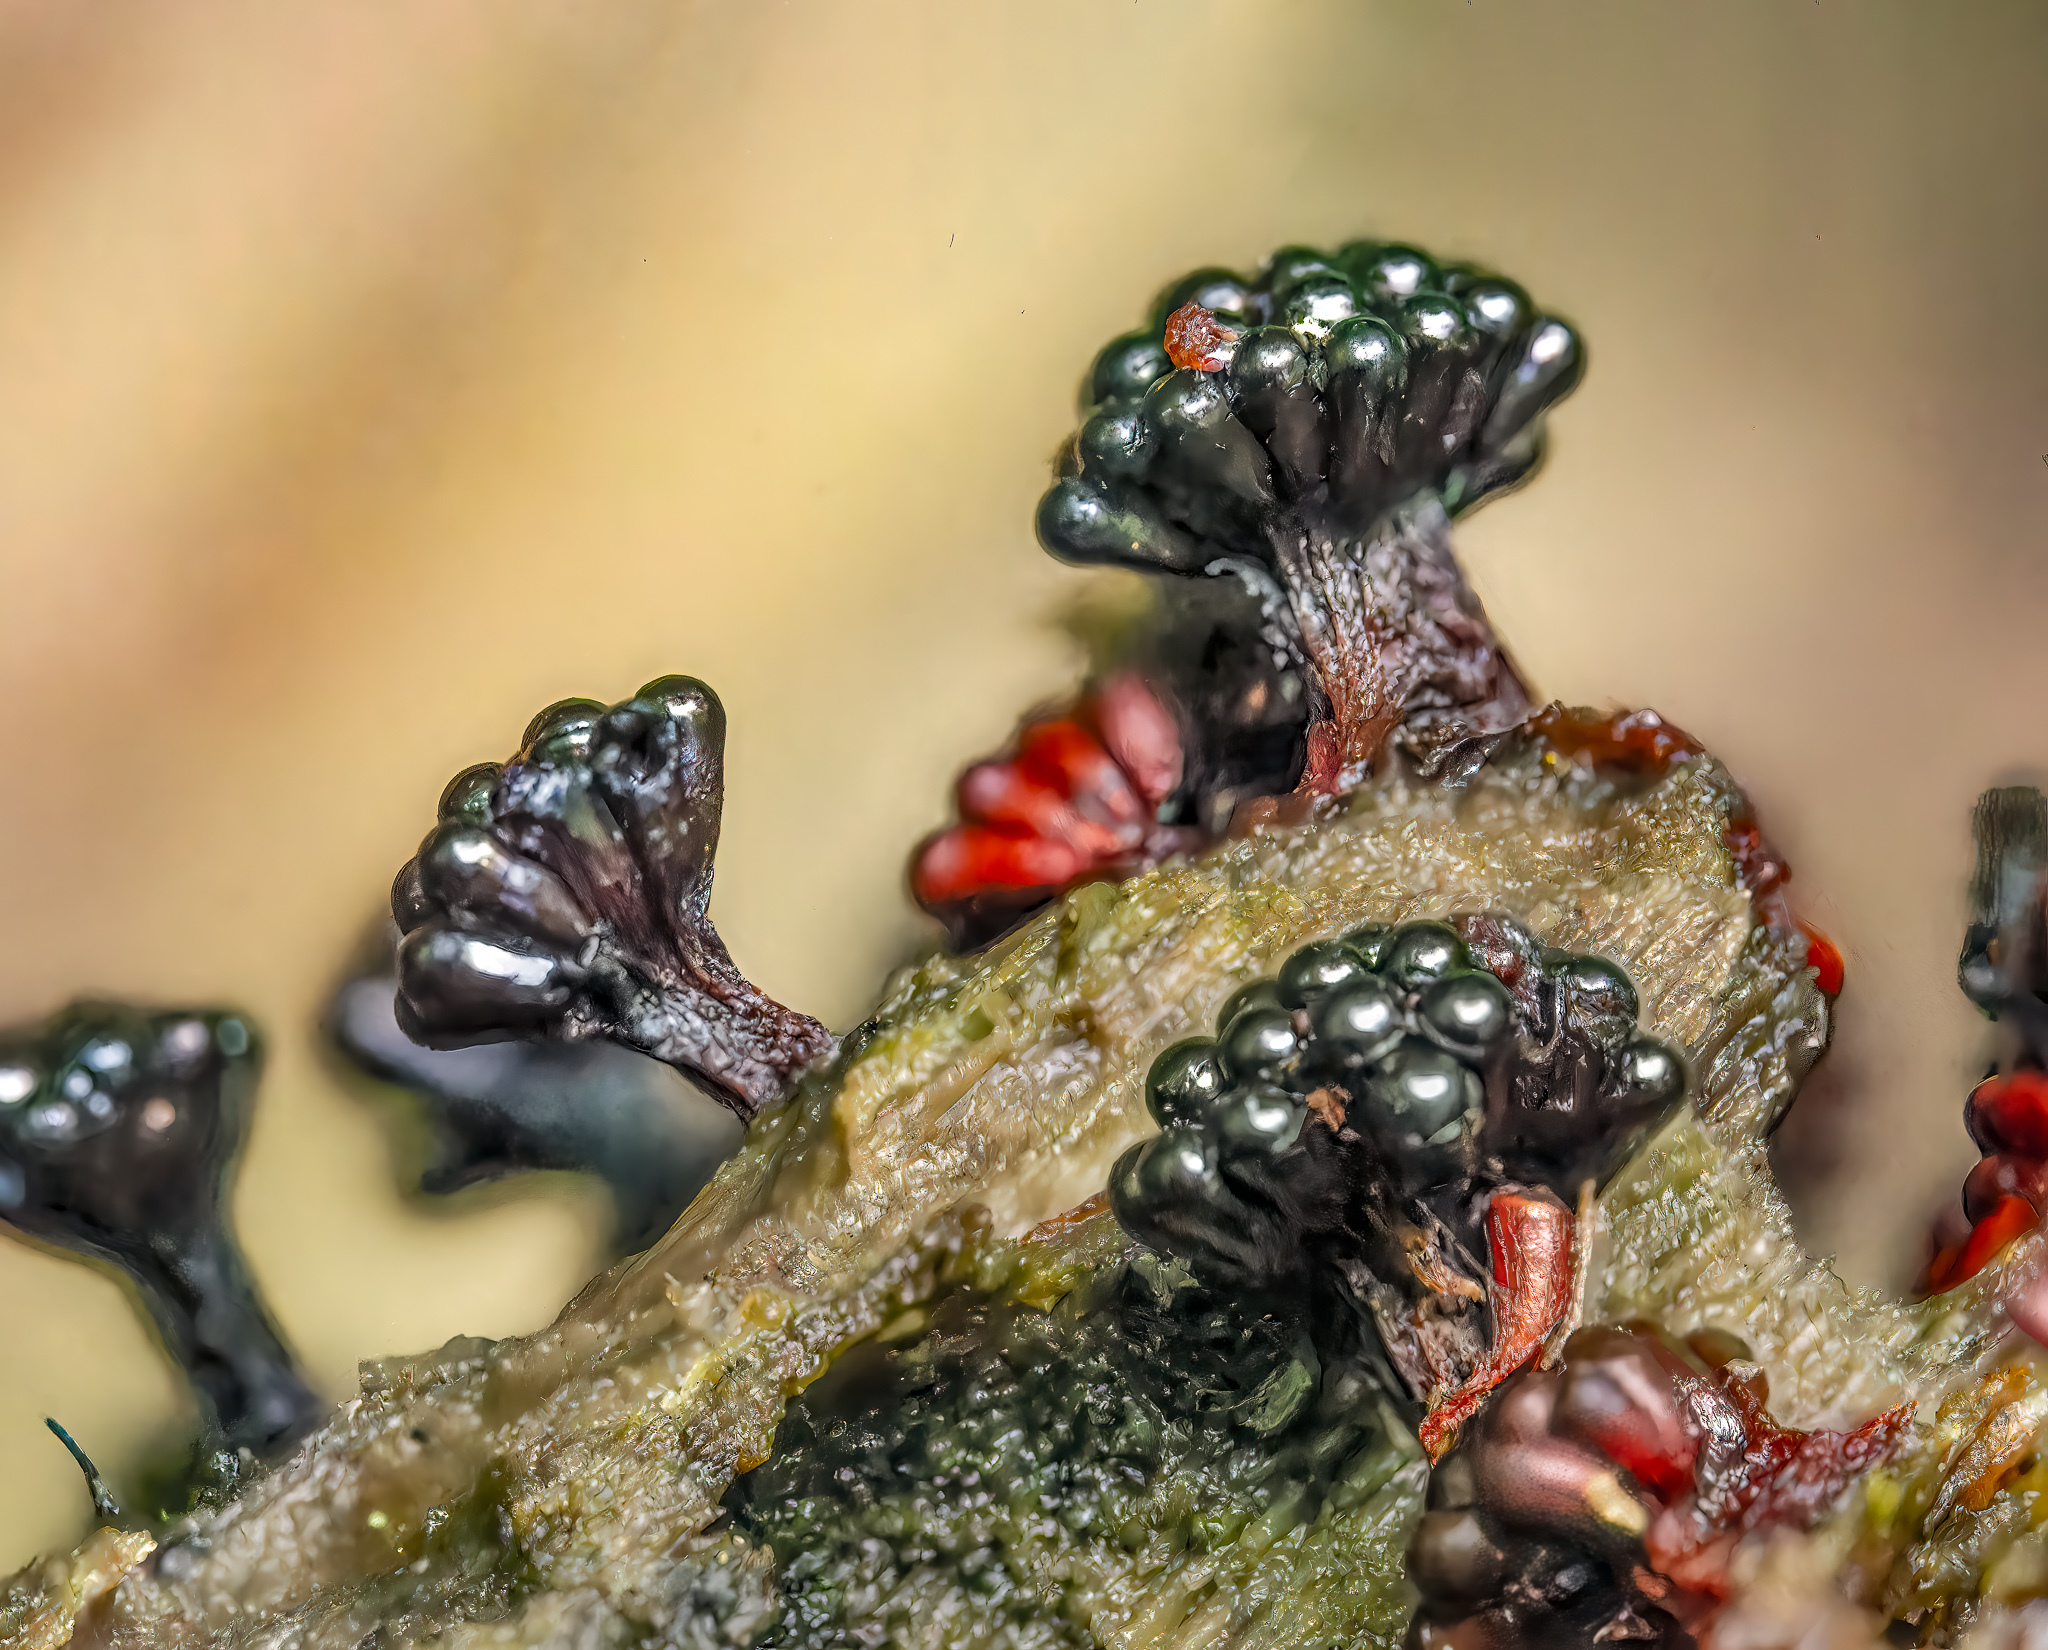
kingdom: Protozoa
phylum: Mycetozoa
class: Myxomycetes
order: Trichiales
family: Trichiaceae
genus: Metatrichia
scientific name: Metatrichia vesparia
